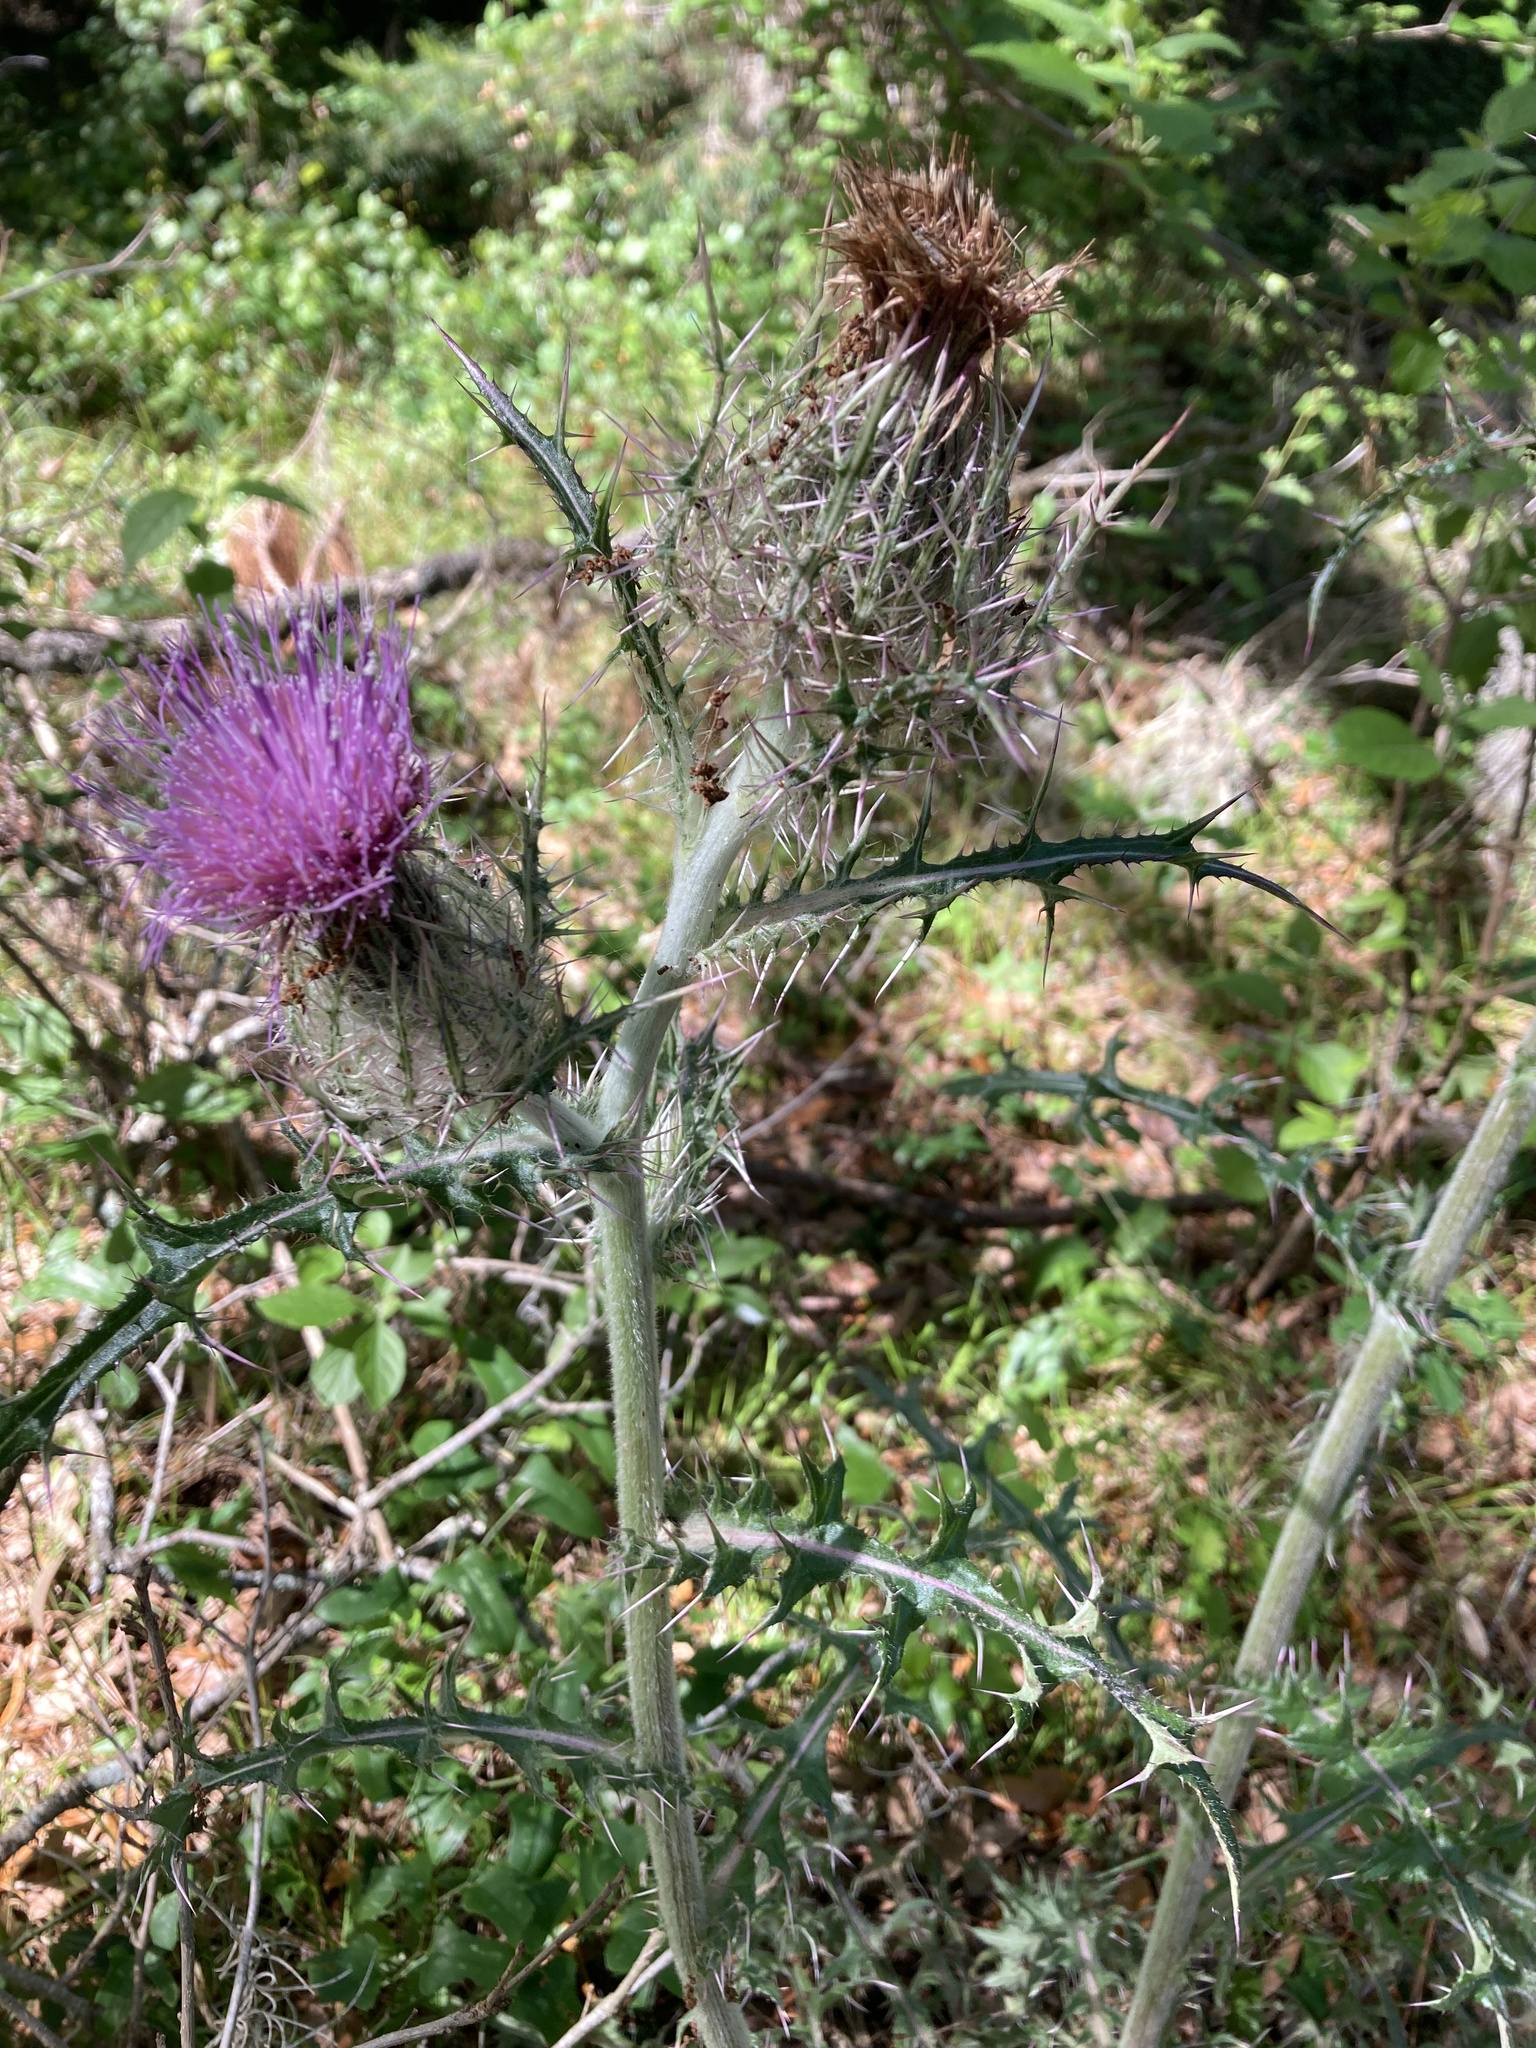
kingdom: Plantae
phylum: Tracheophyta
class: Magnoliopsida
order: Asterales
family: Asteraceae
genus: Cirsium
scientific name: Cirsium horridulum
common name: Bristly thistle
